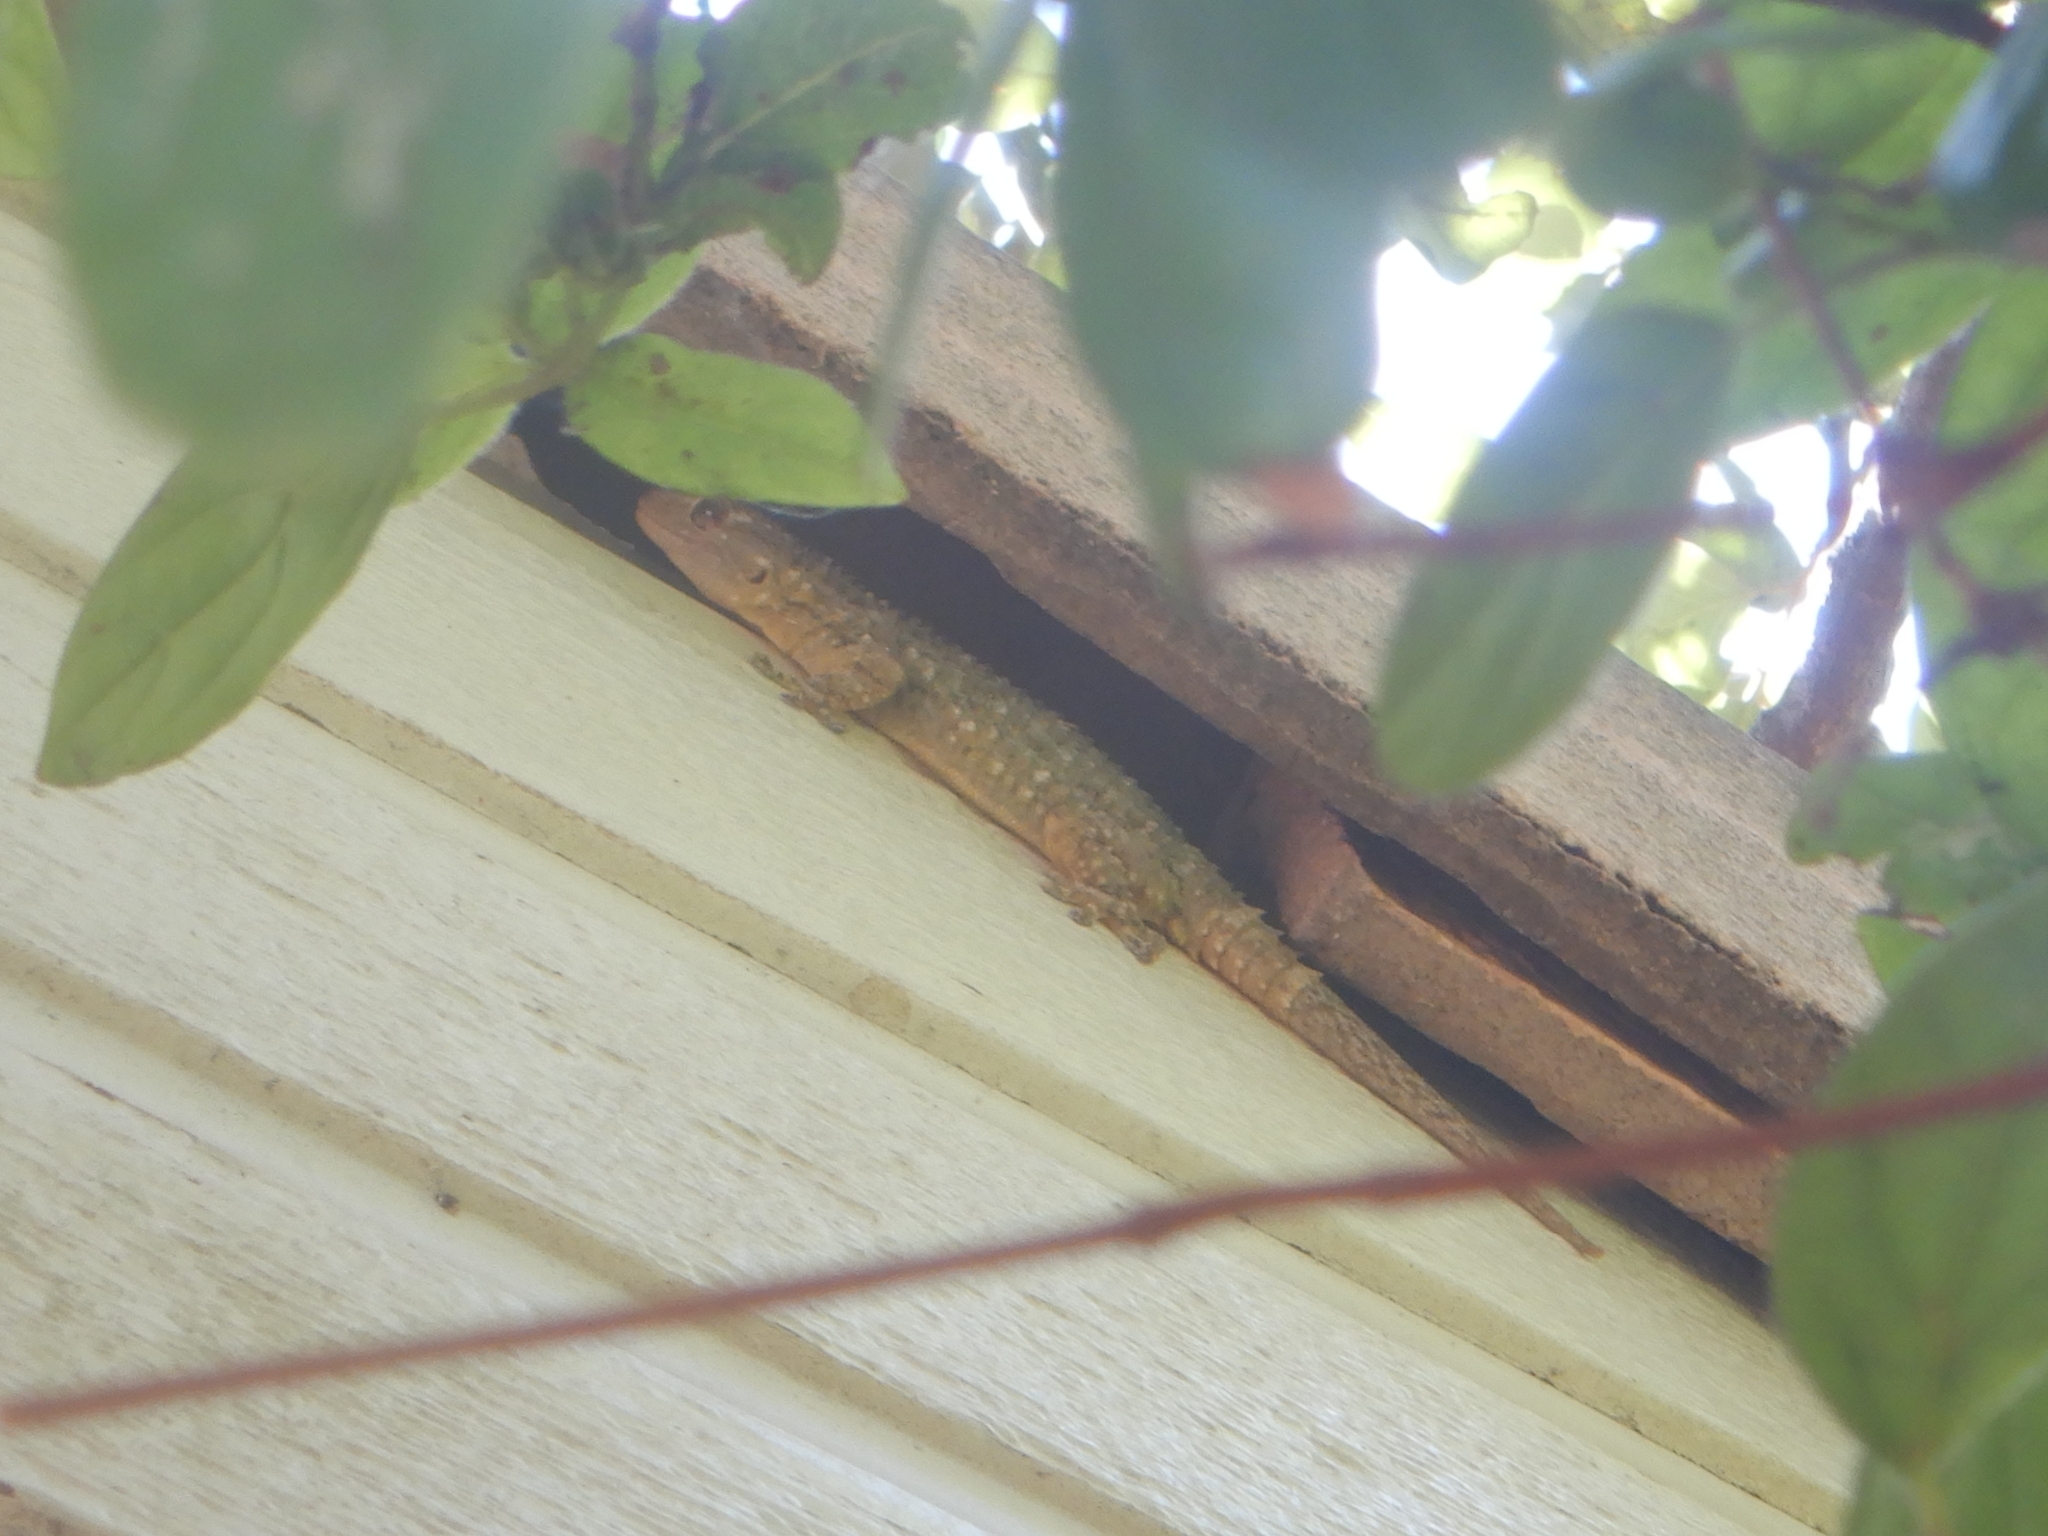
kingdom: Animalia
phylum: Chordata
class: Squamata
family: Phyllodactylidae
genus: Tarentola
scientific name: Tarentola mauritanica
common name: Moorish gecko
